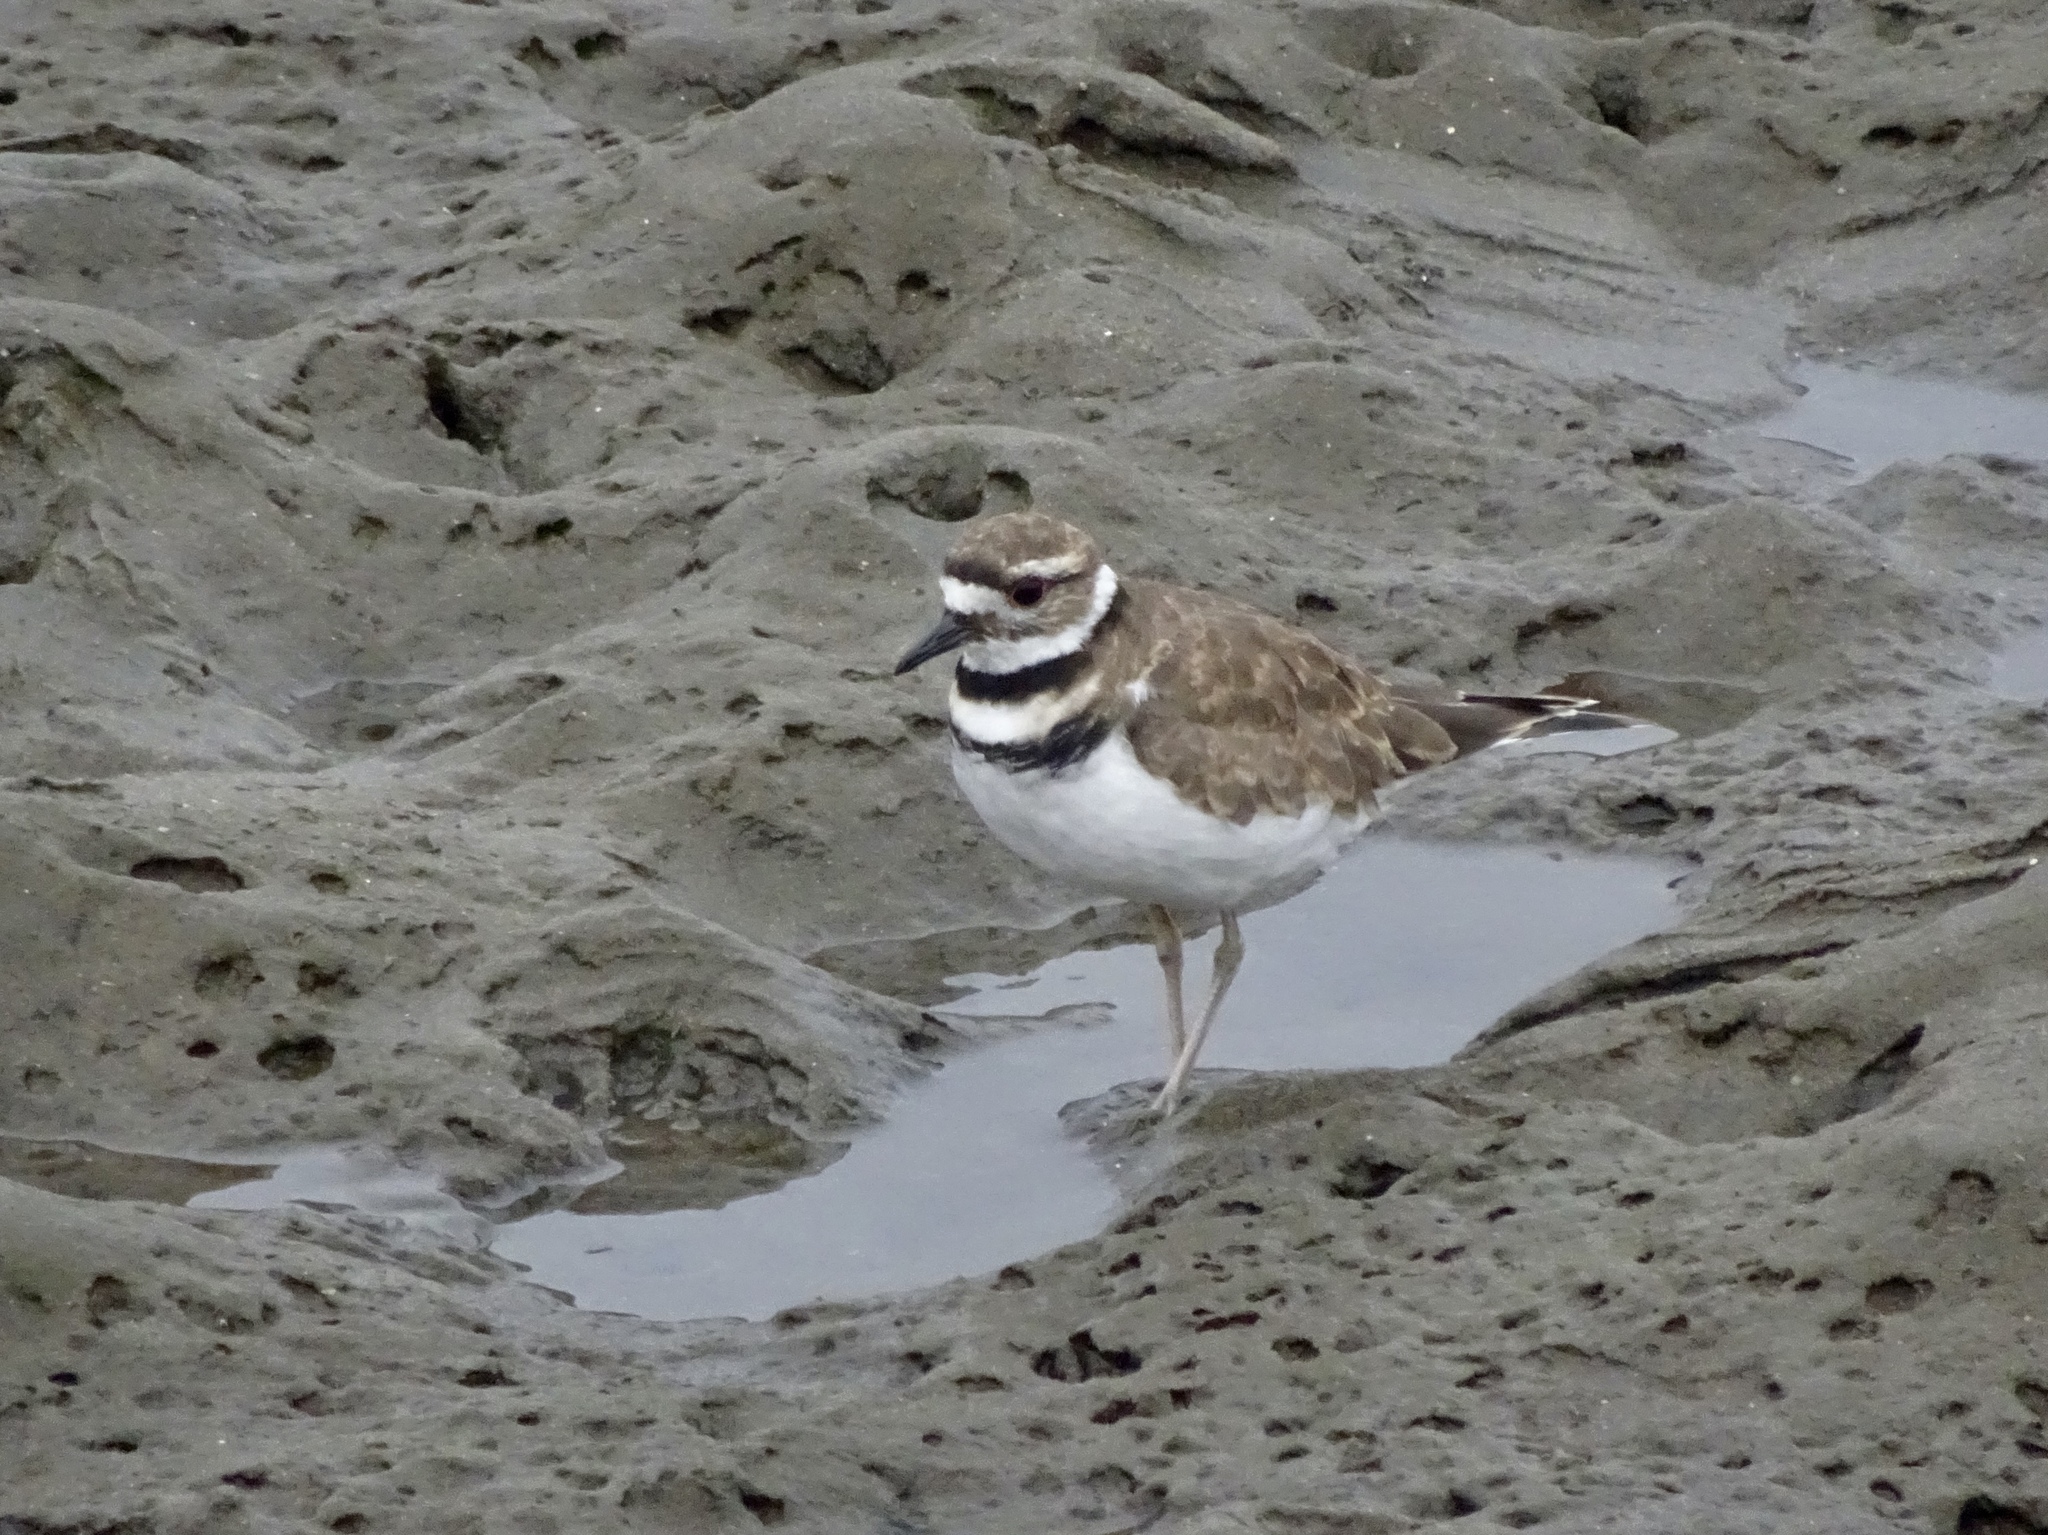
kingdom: Animalia
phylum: Chordata
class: Aves
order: Charadriiformes
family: Charadriidae
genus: Charadrius
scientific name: Charadrius vociferus
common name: Killdeer
